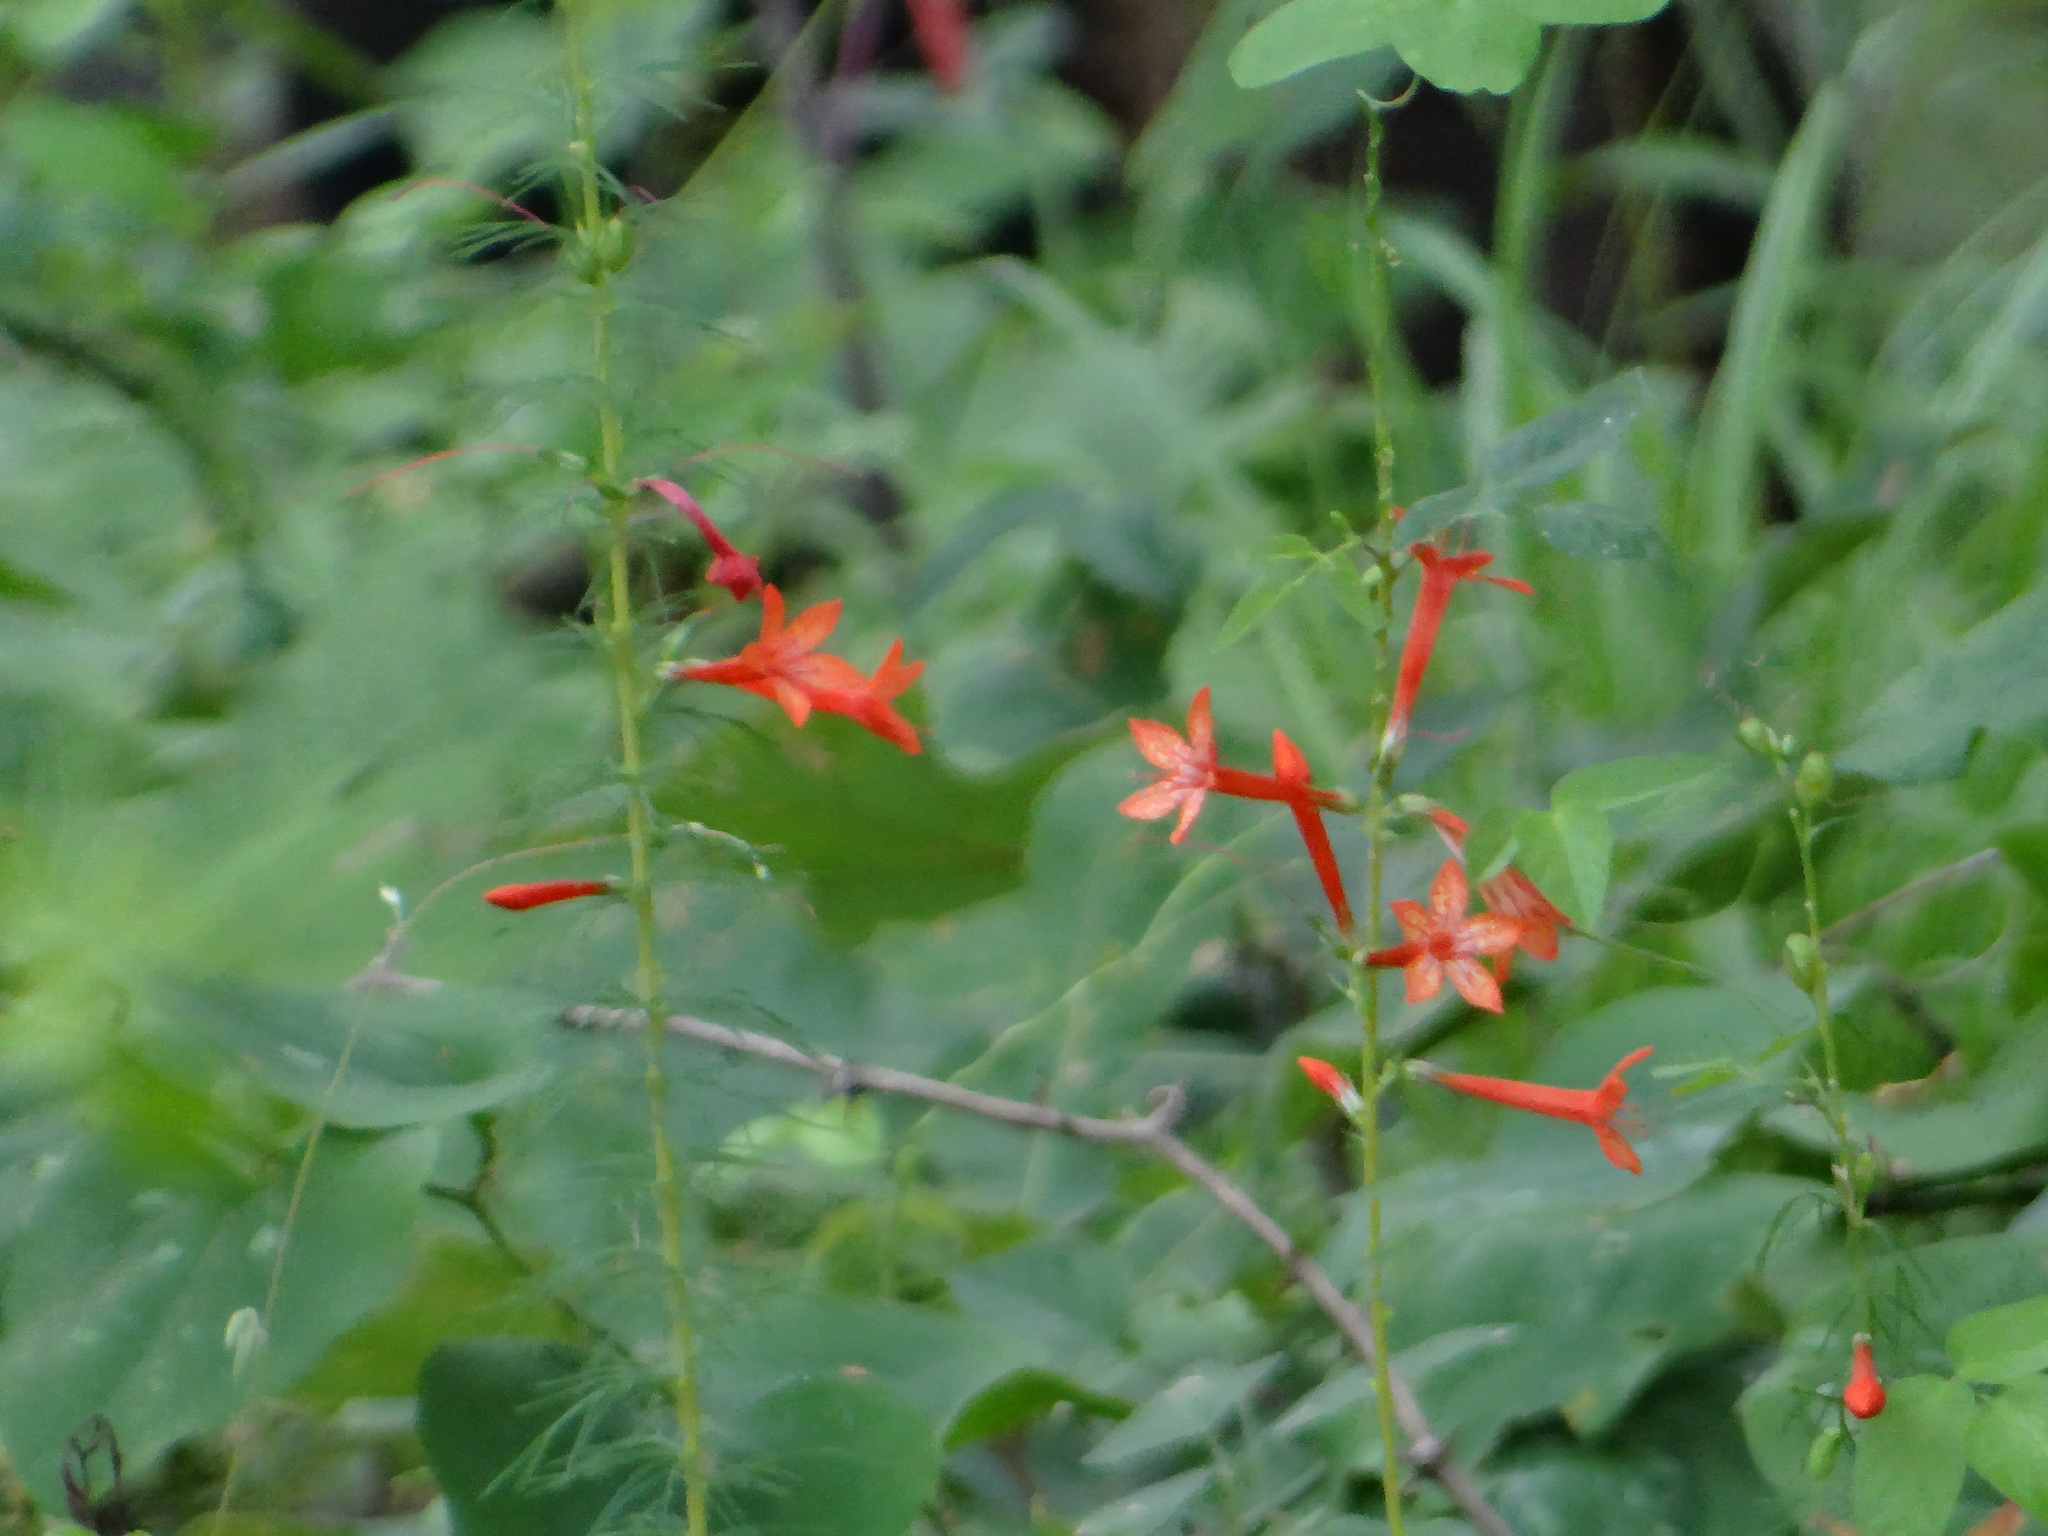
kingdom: Plantae
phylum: Tracheophyta
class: Magnoliopsida
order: Ericales
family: Polemoniaceae
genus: Ipomopsis
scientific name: Ipomopsis rubra
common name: Skyrocket
